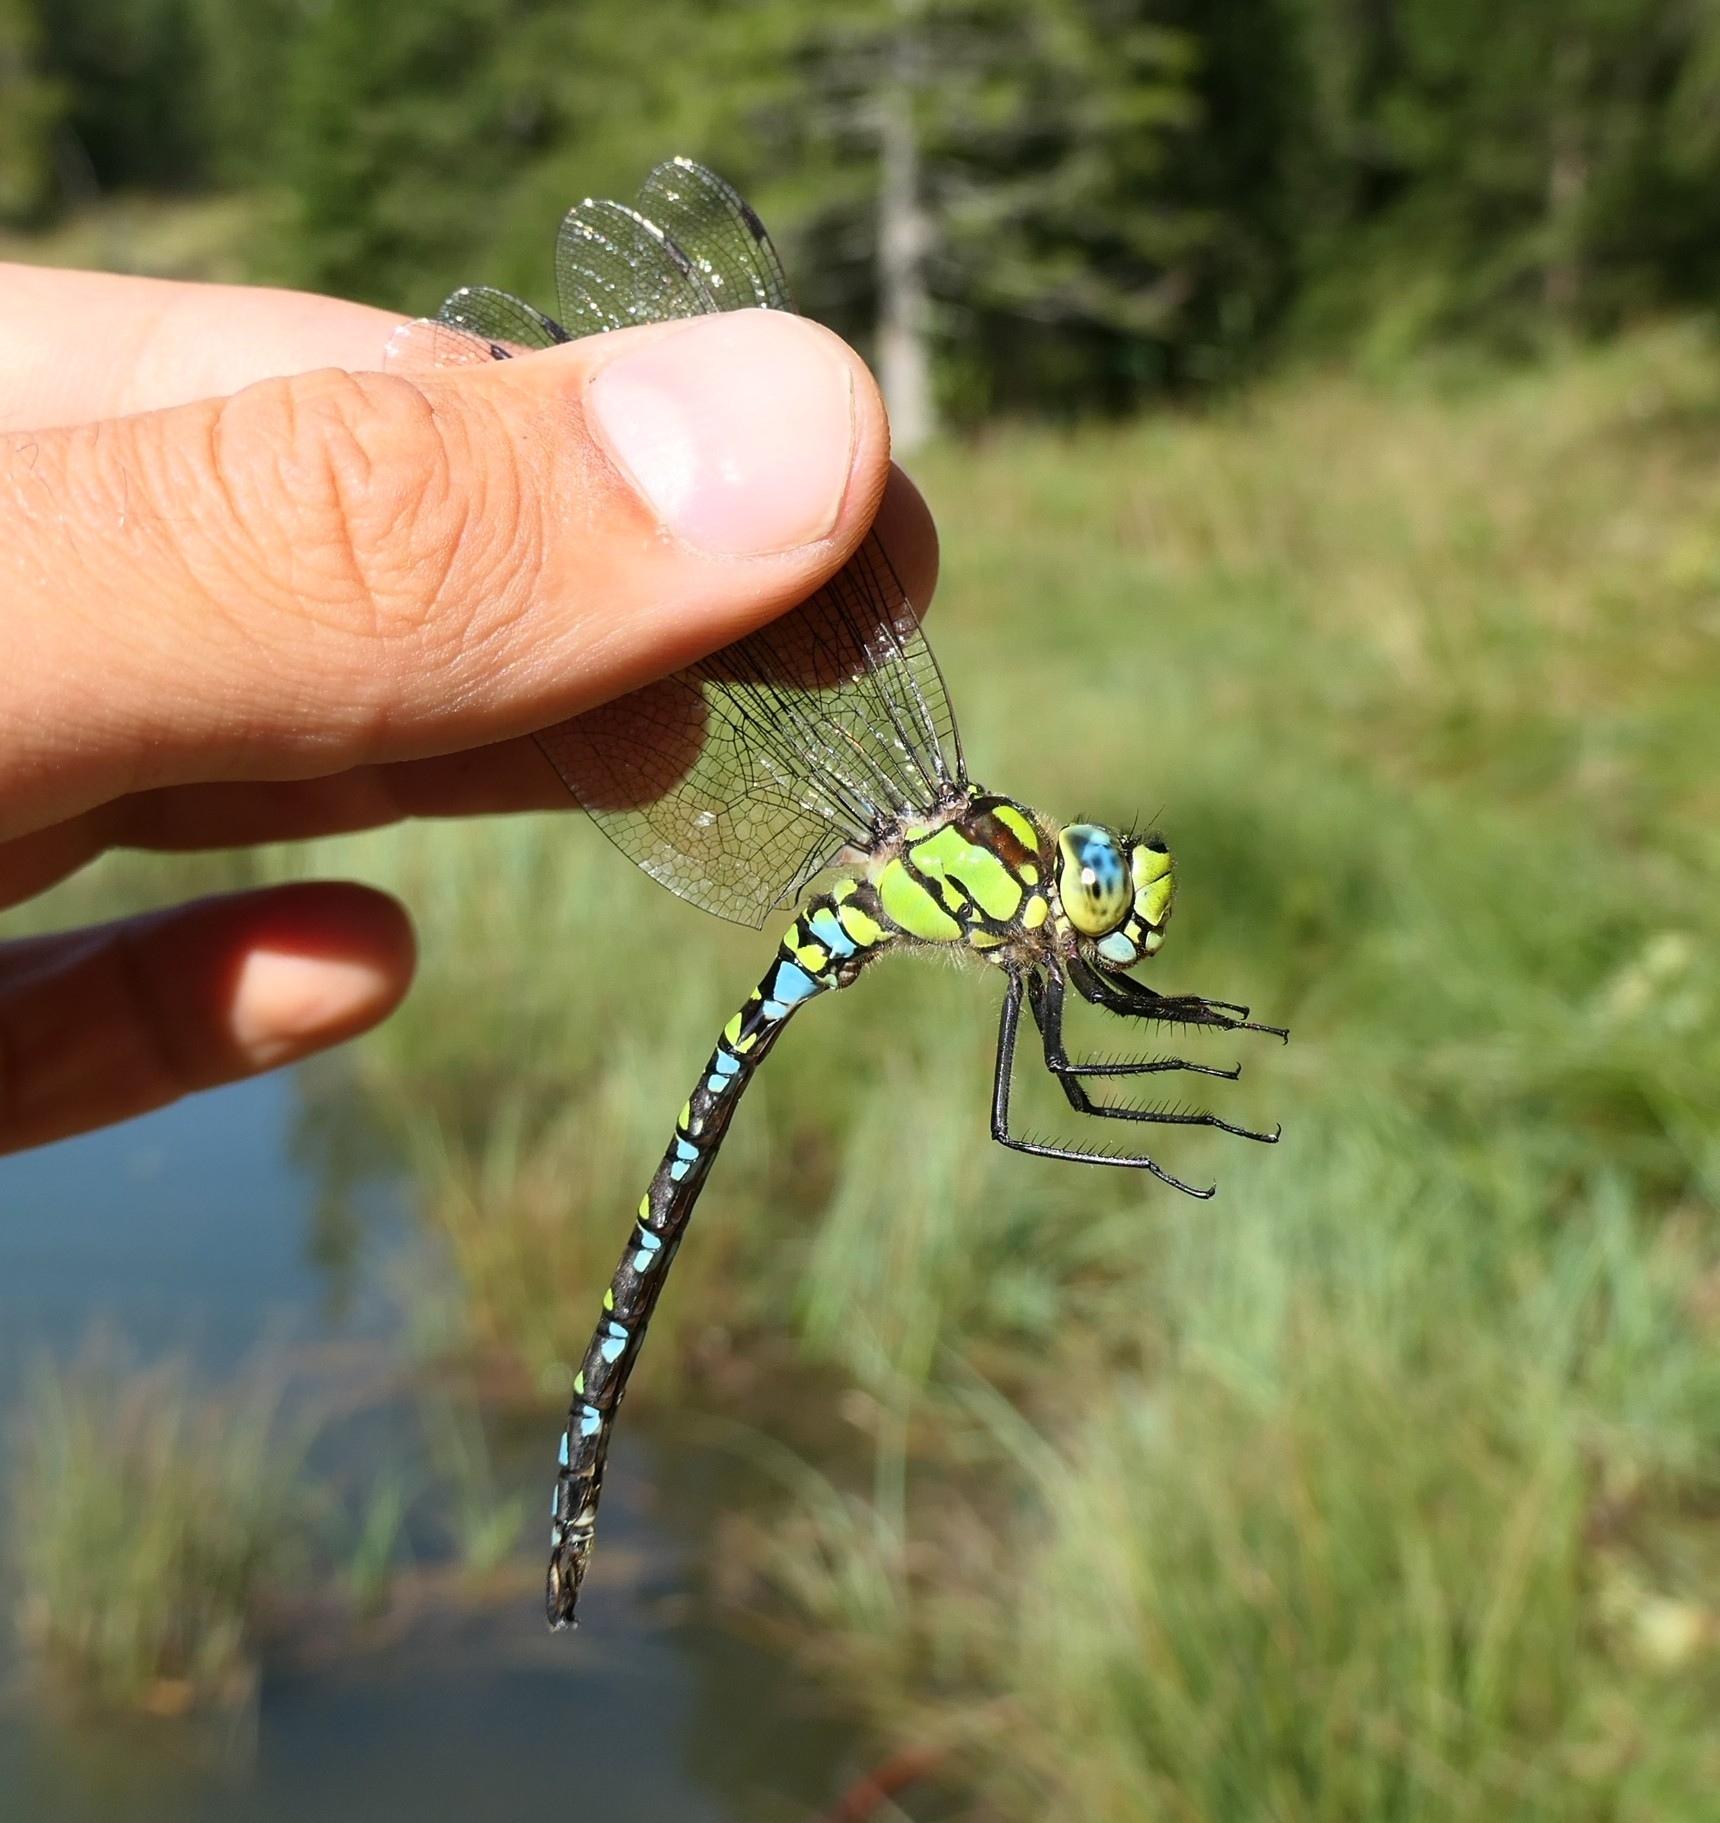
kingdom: Animalia
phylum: Arthropoda
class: Insecta
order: Odonata
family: Aeshnidae
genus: Aeshna
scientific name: Aeshna cyanea
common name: Southern hawker
